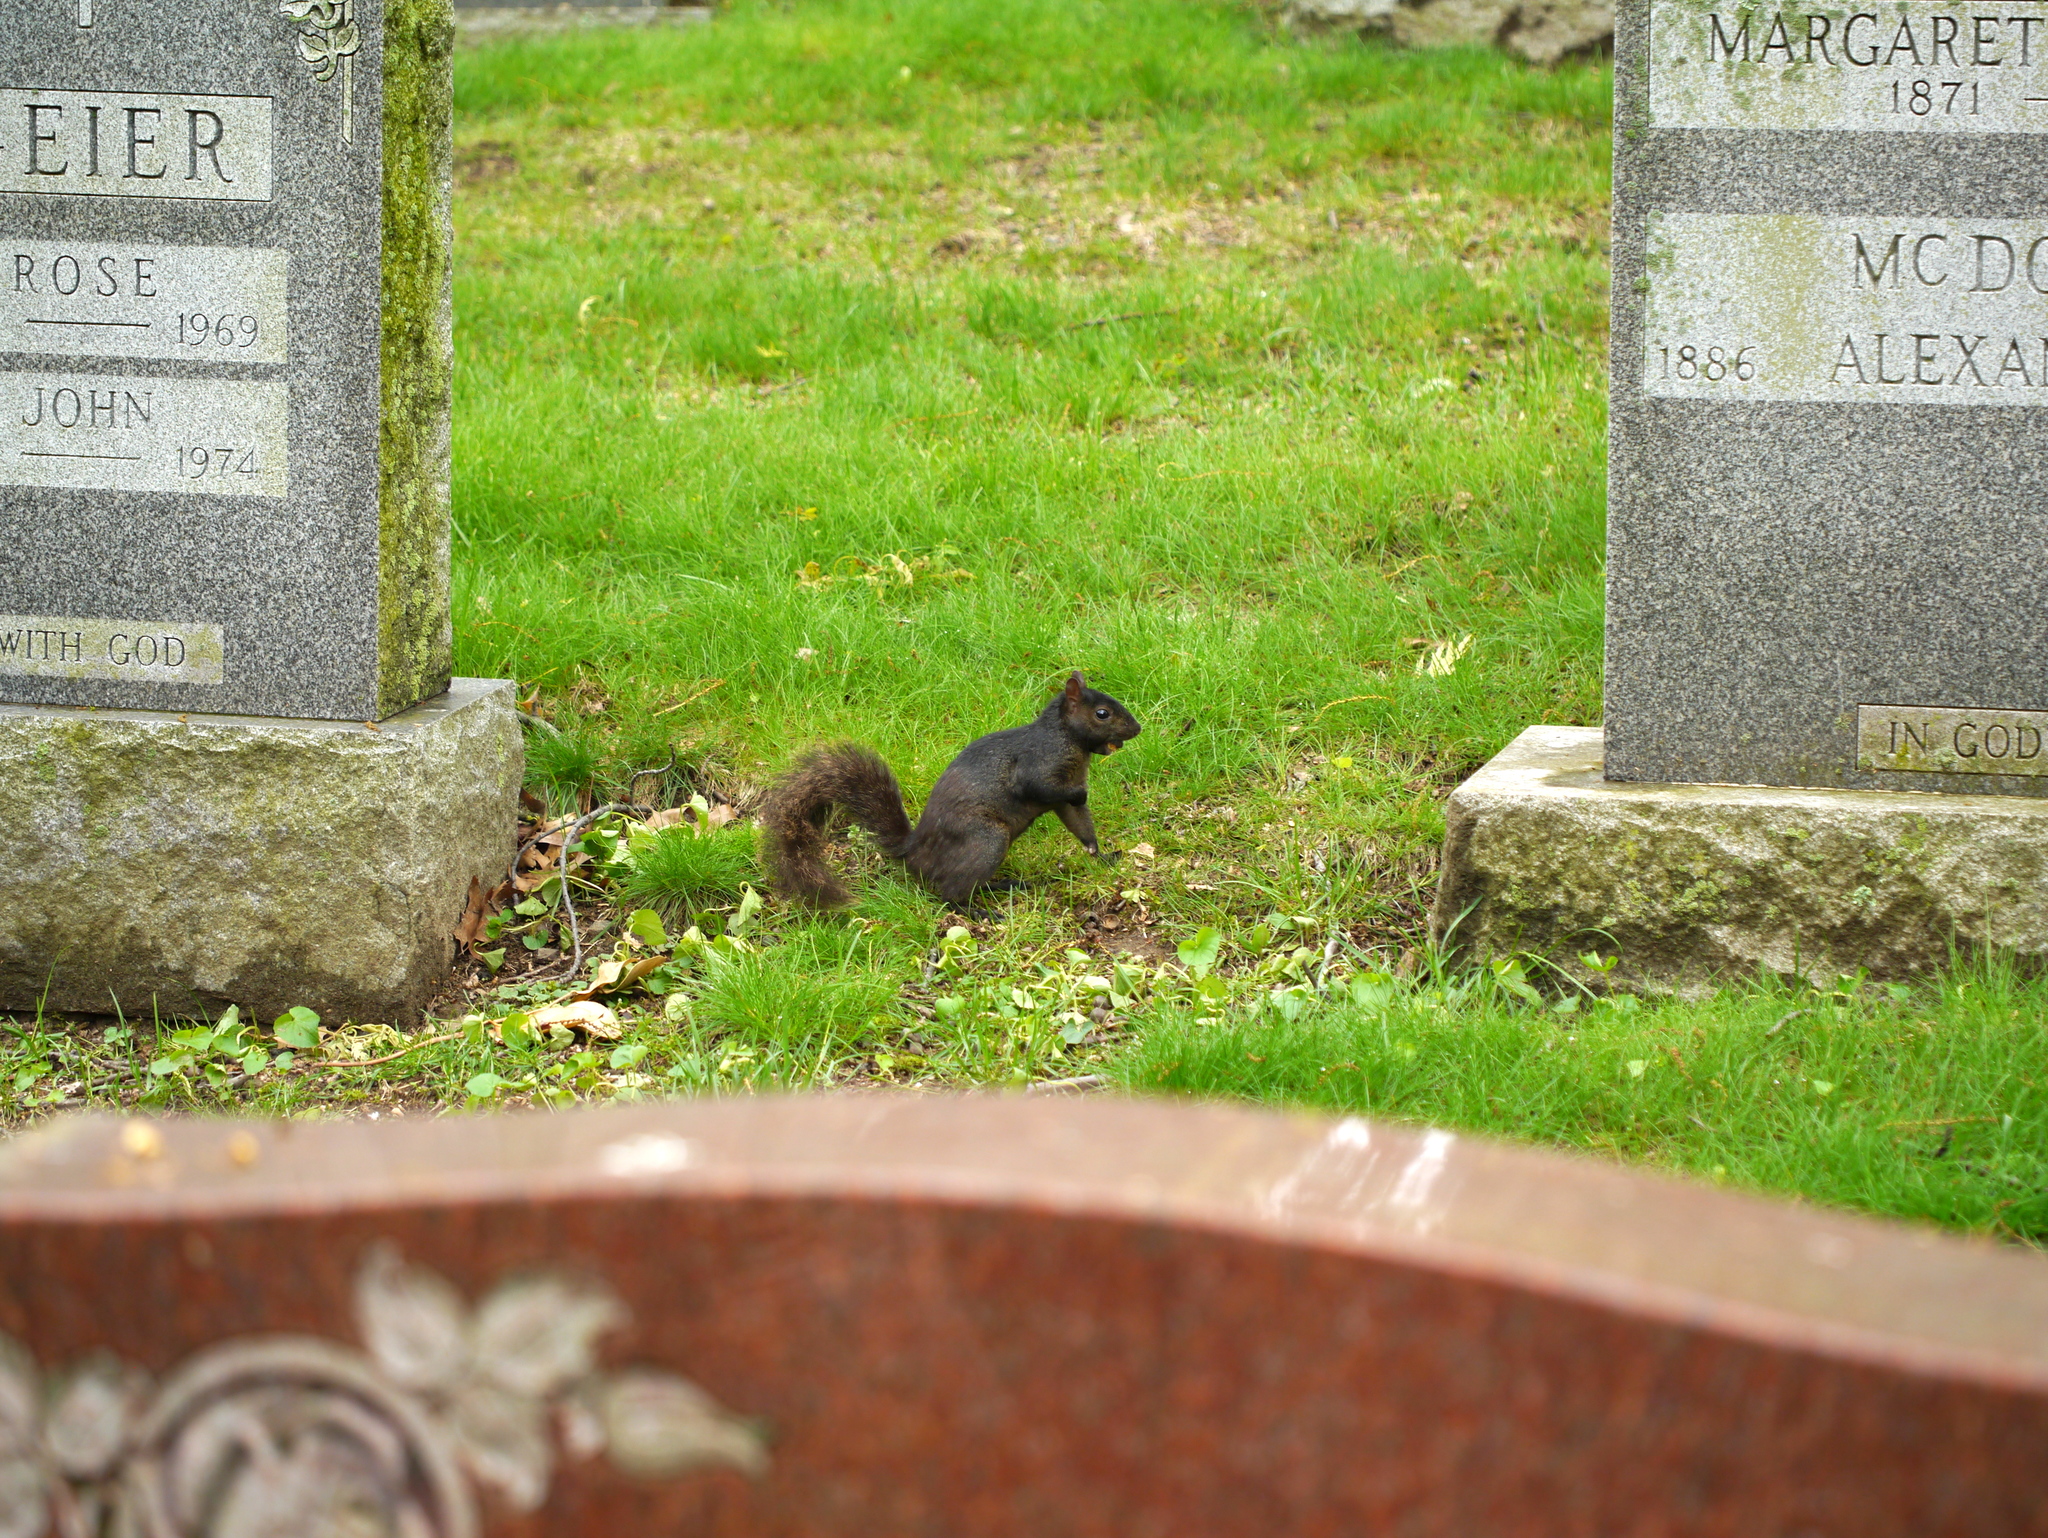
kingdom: Animalia
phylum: Chordata
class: Mammalia
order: Rodentia
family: Sciuridae
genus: Sciurus
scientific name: Sciurus carolinensis
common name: Eastern gray squirrel
